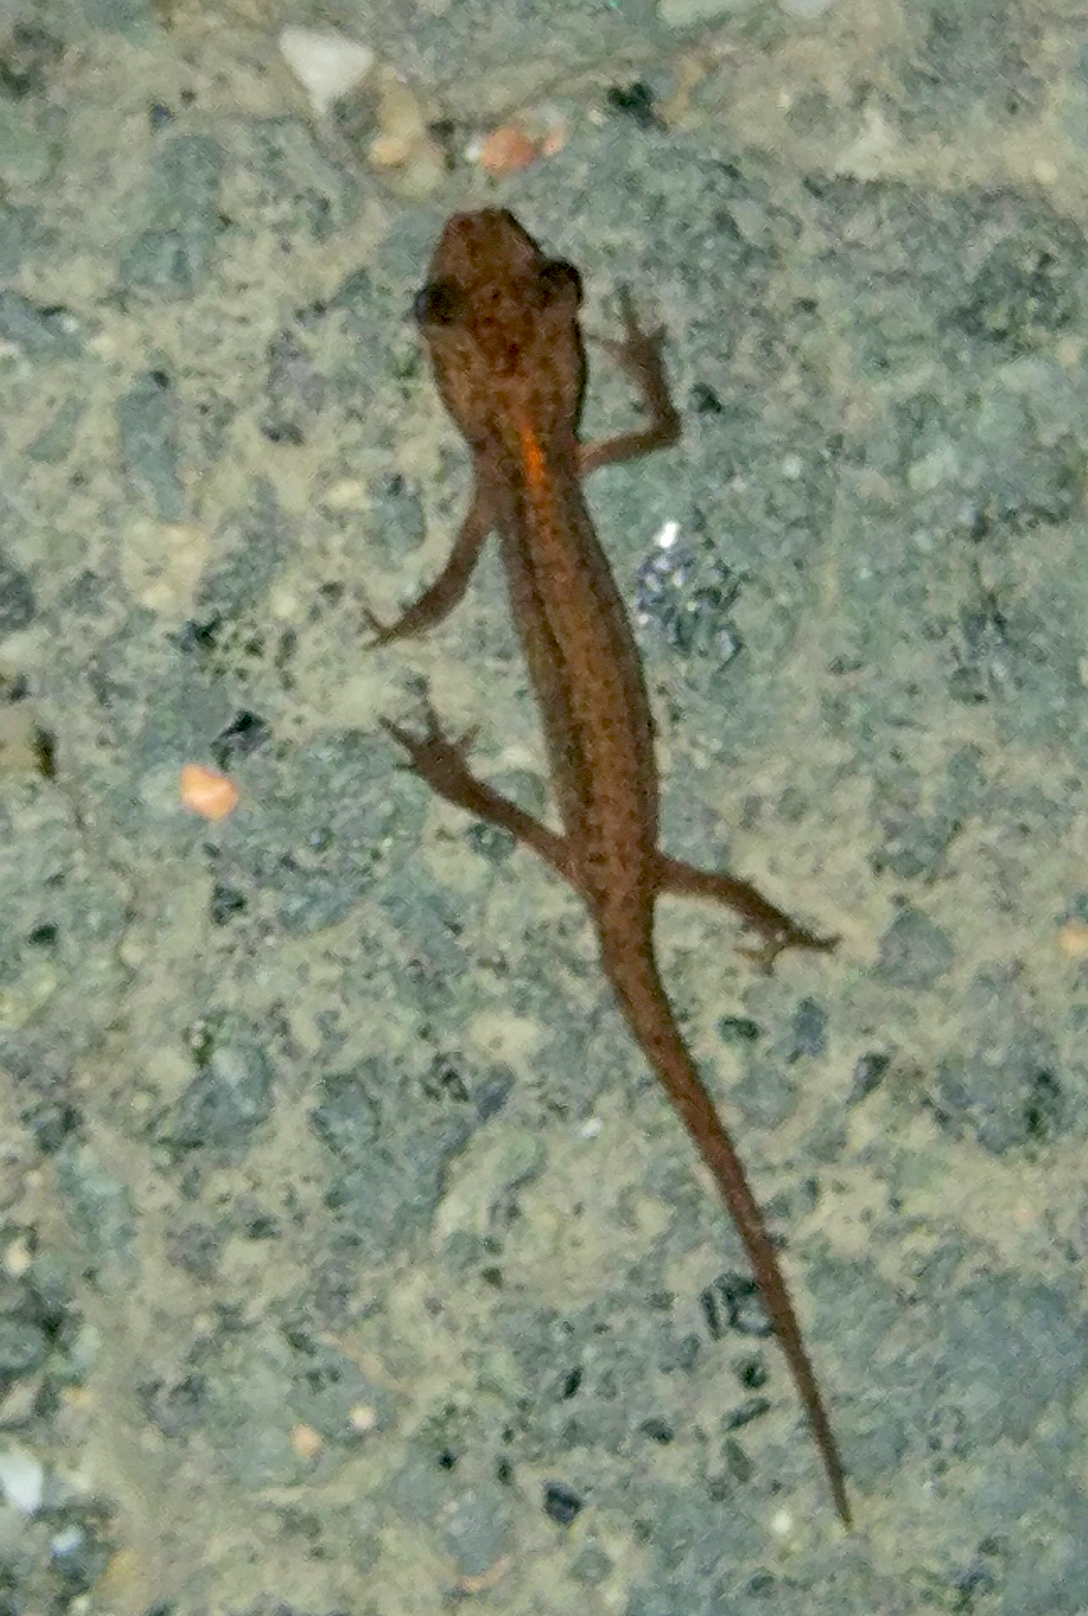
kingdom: Animalia
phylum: Chordata
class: Amphibia
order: Caudata
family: Salamandridae
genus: Lissotriton
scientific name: Lissotriton schmidtleri
